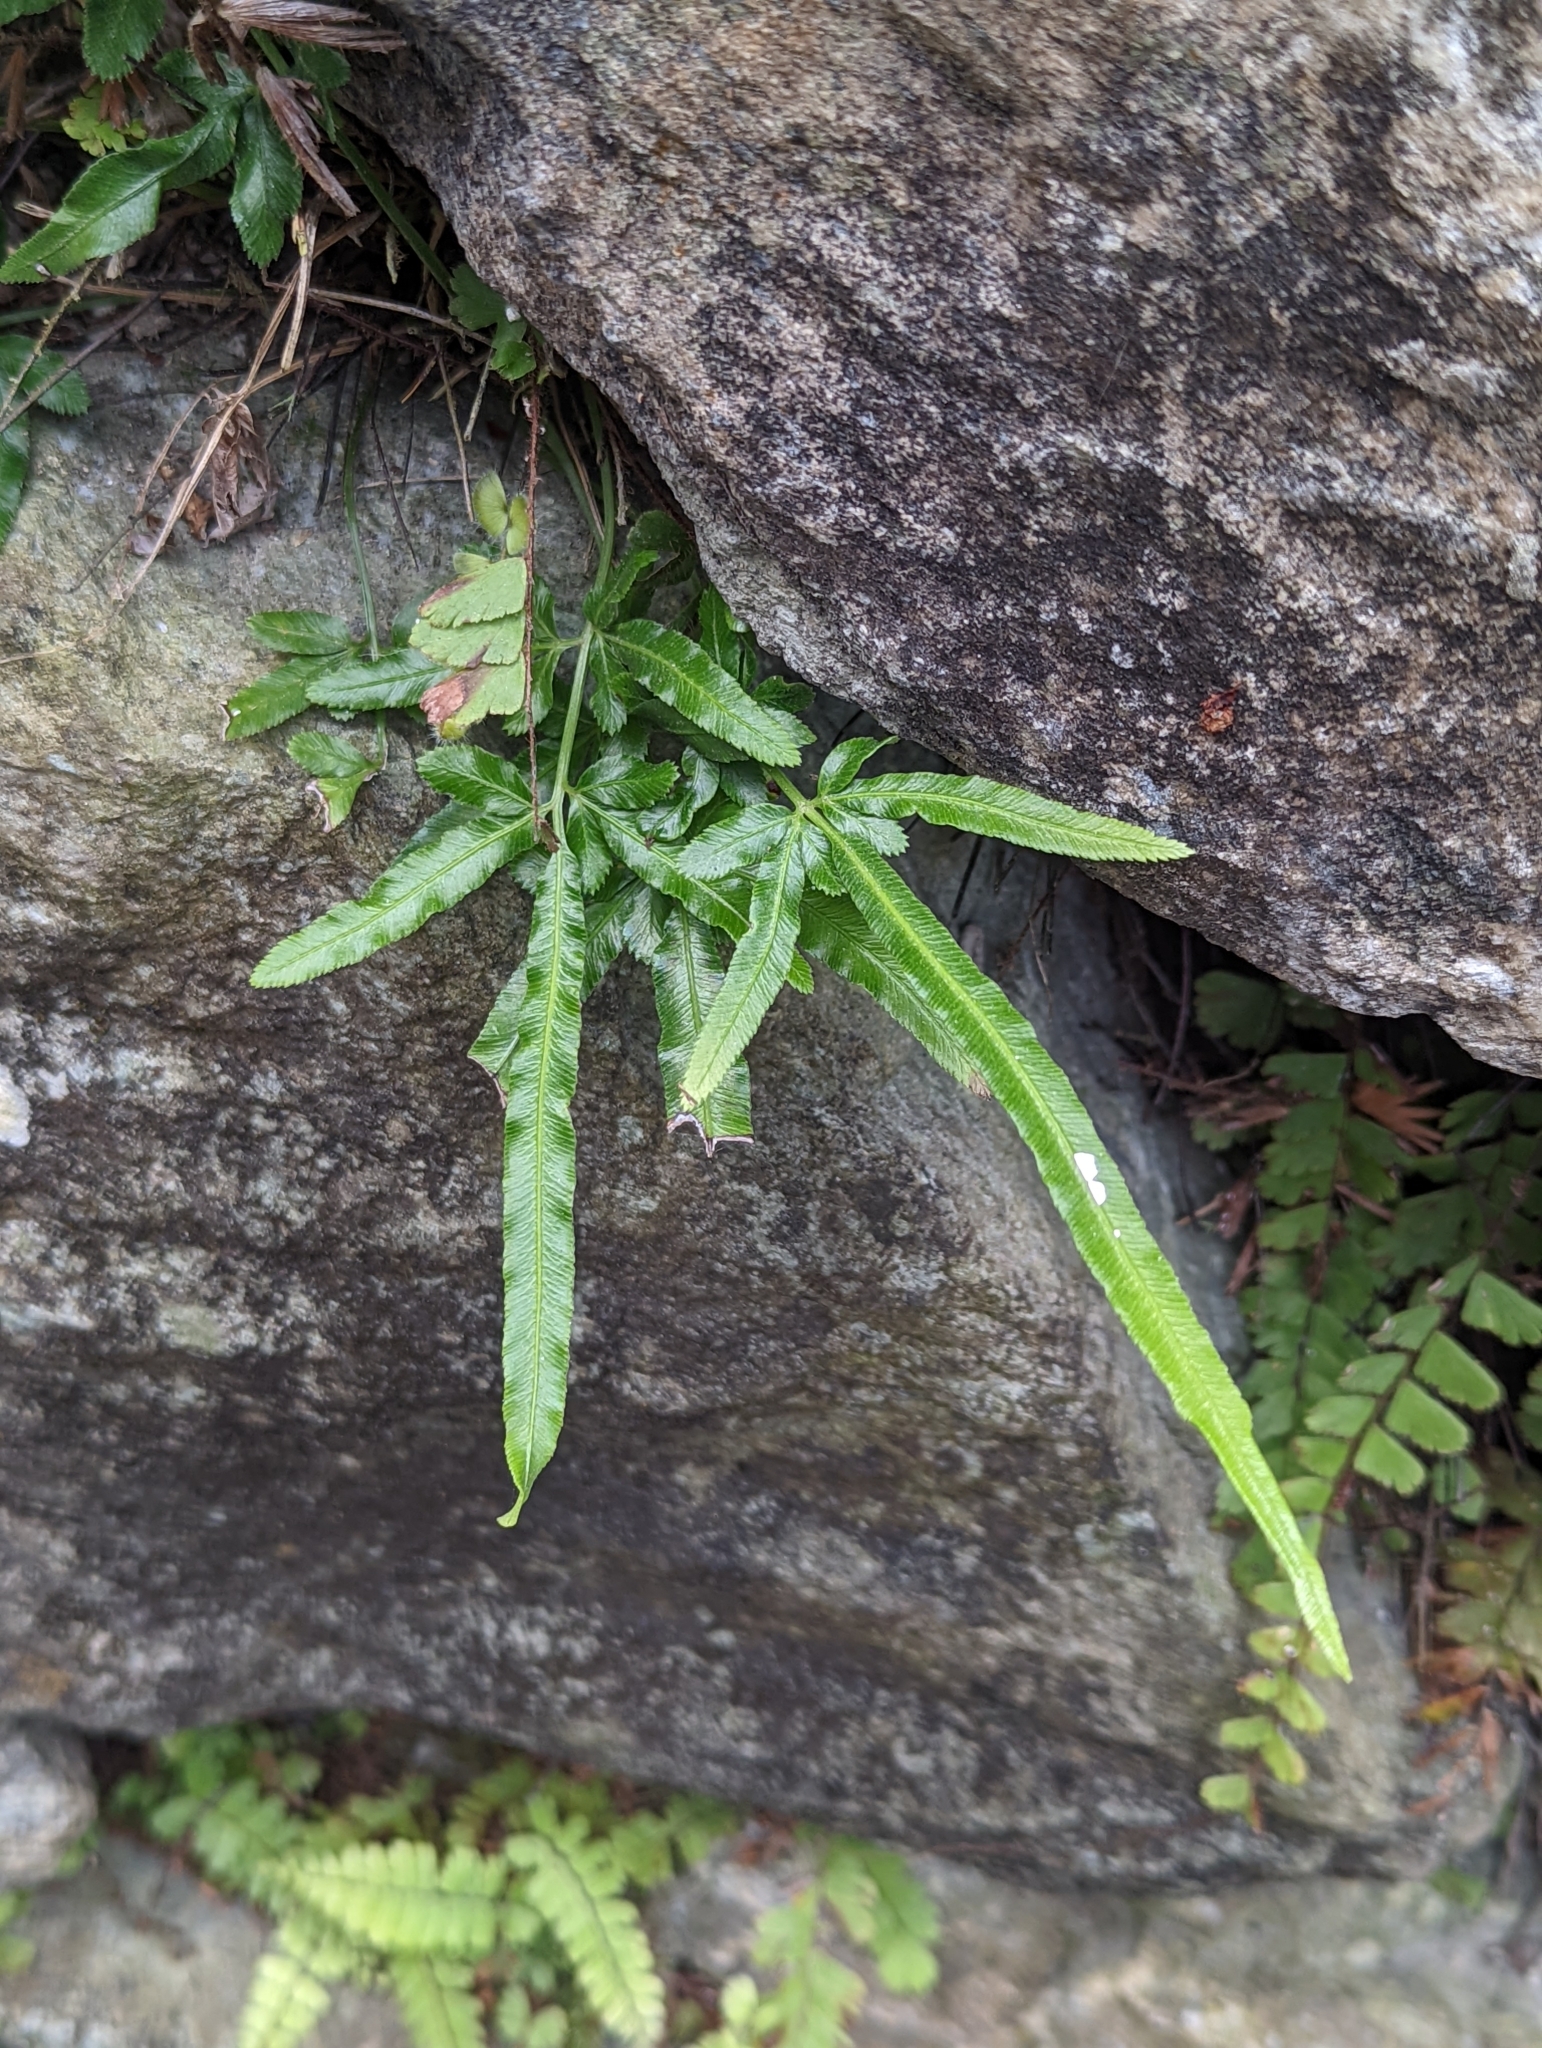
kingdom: Plantae
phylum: Tracheophyta
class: Polypodiopsida
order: Polypodiales
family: Pteridaceae
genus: Pteris
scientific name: Pteris ensiformis
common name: Sword brake
